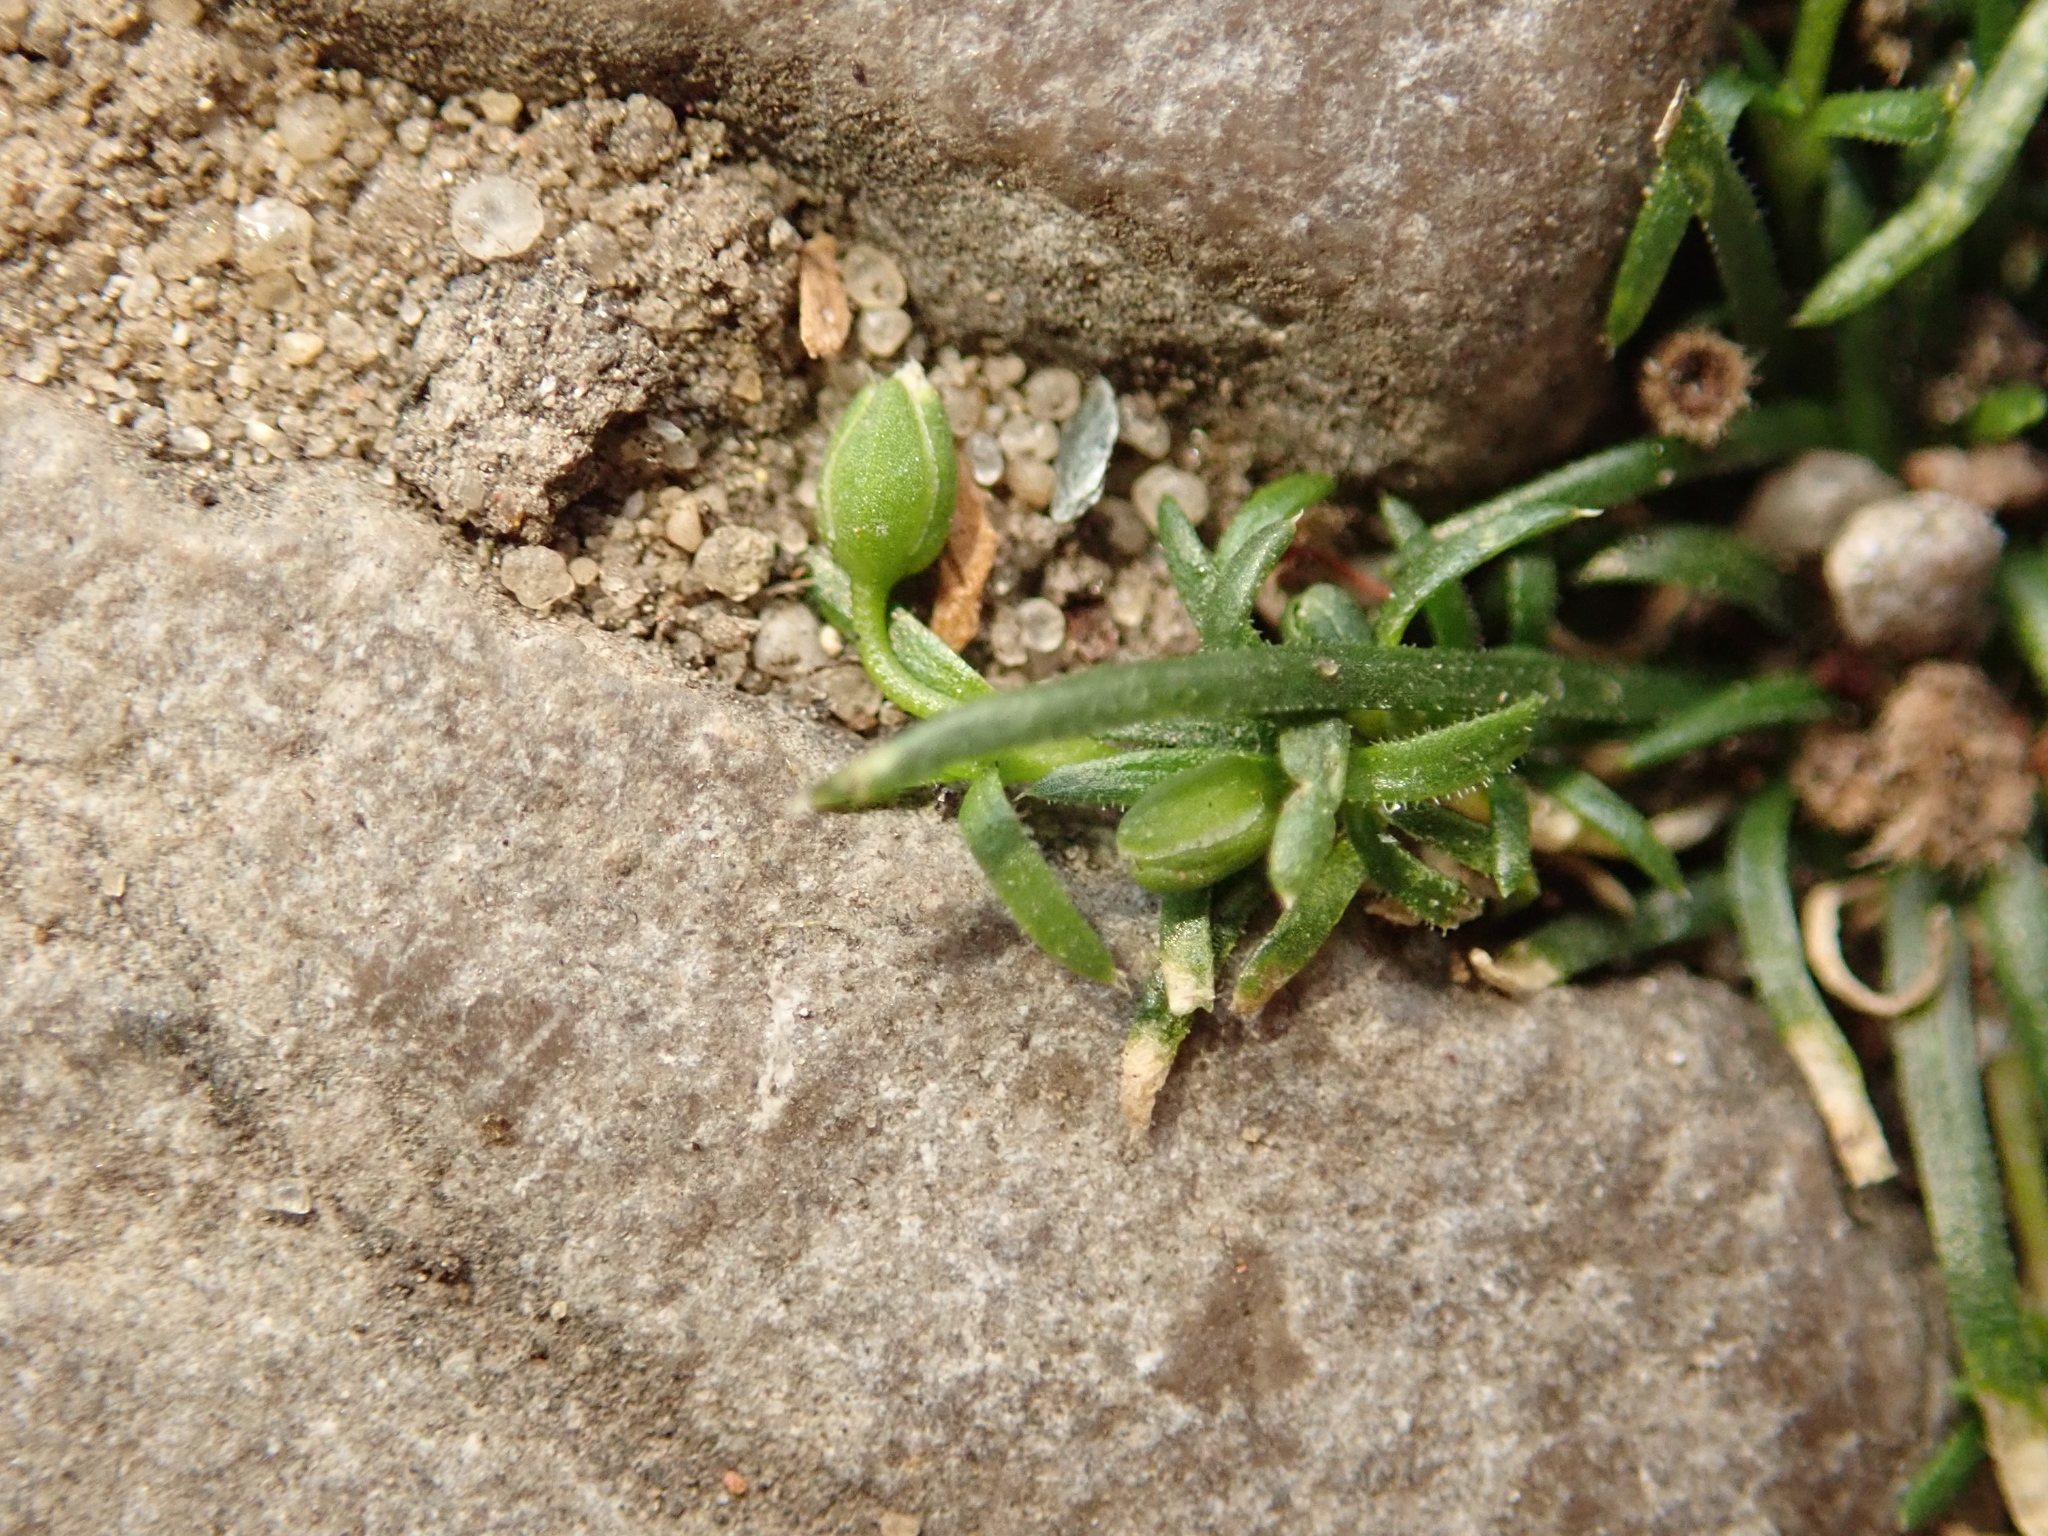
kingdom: Plantae
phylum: Tracheophyta
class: Magnoliopsida
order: Caryophyllales
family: Caryophyllaceae
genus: Sagina
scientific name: Sagina procumbens
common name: Procumbent pearlwort
